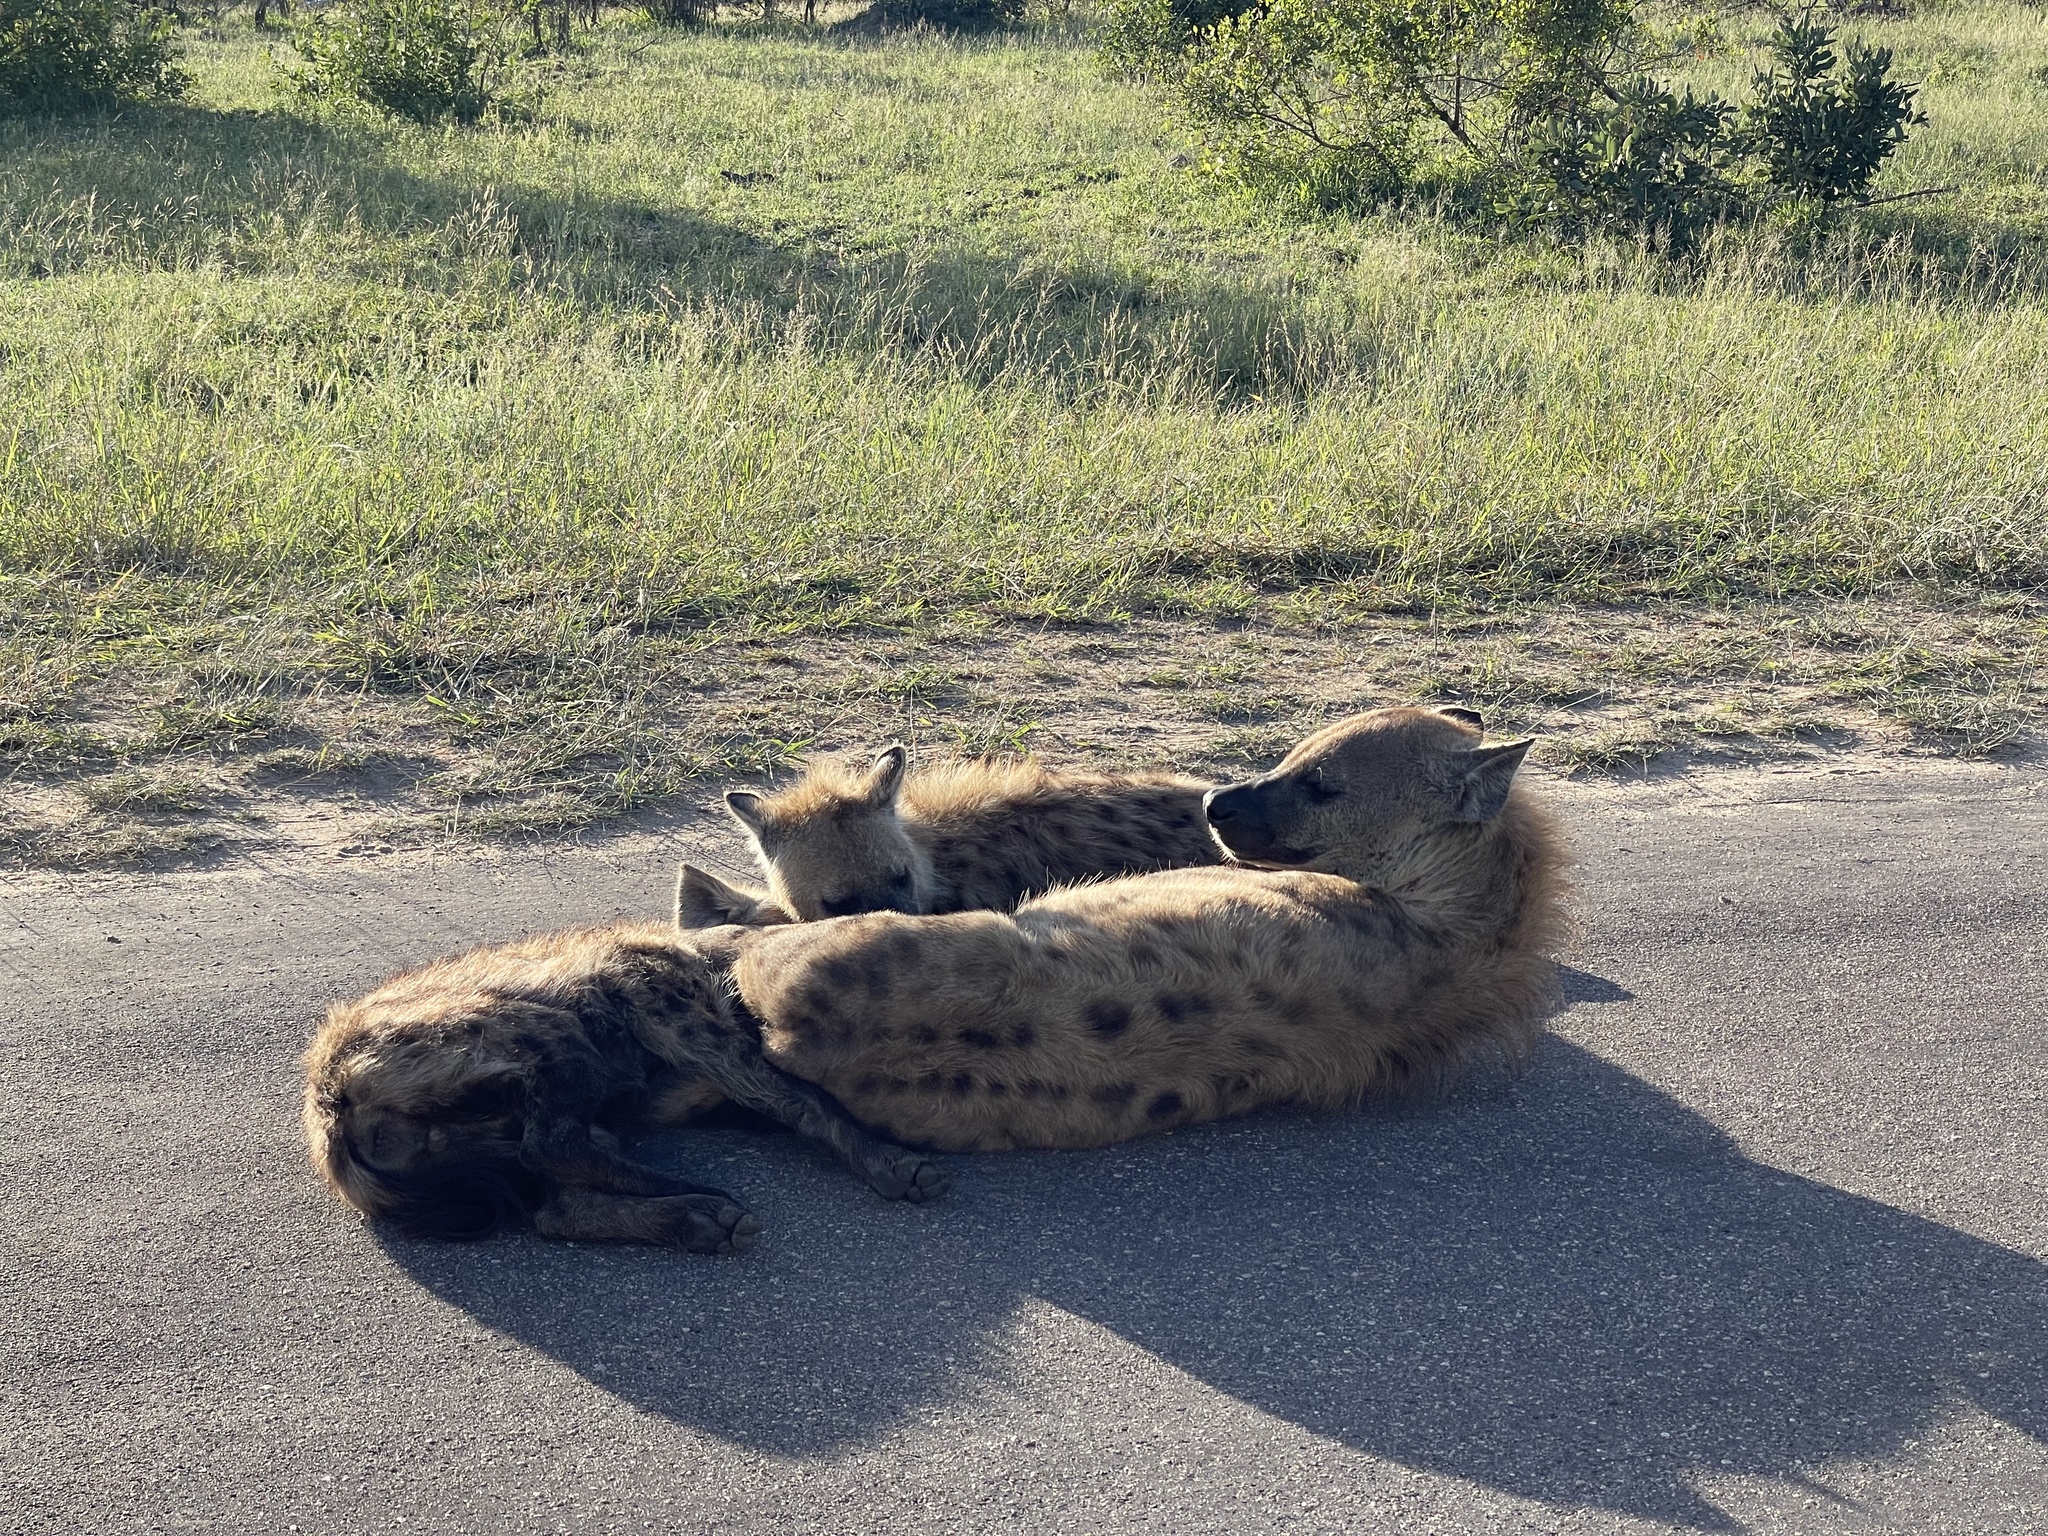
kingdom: Animalia
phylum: Chordata
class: Mammalia
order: Carnivora
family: Hyaenidae
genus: Crocuta
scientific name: Crocuta crocuta
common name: Spotted hyaena
